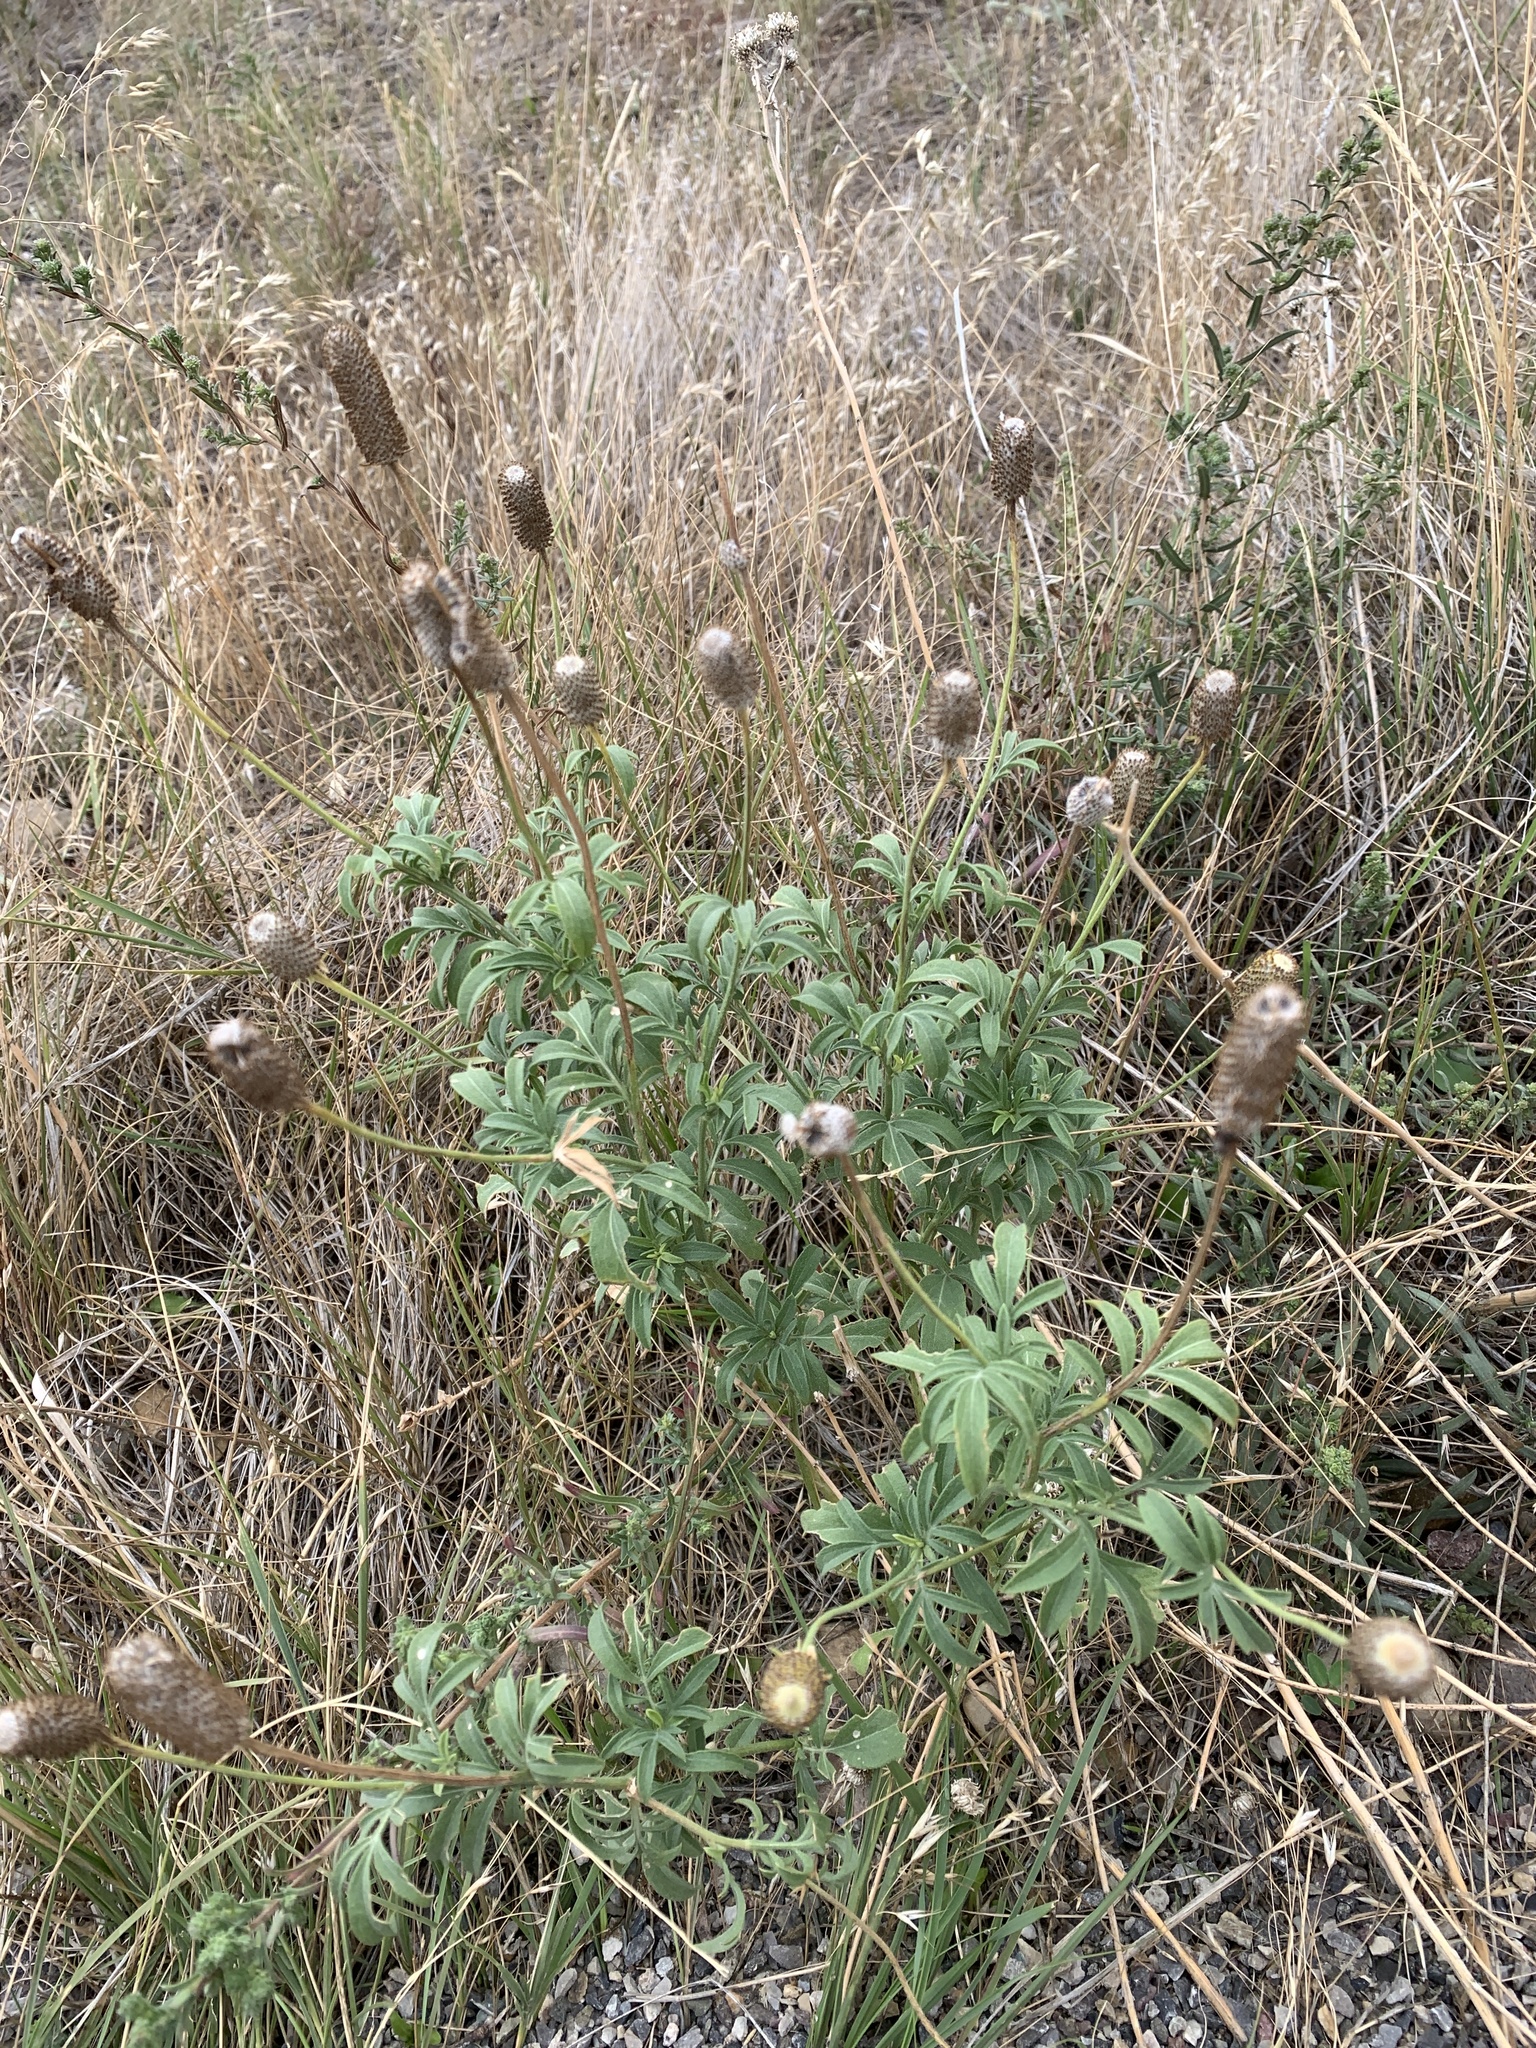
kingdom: Plantae
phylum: Tracheophyta
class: Magnoliopsida
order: Asterales
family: Asteraceae
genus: Ratibida
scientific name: Ratibida columnifera
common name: Prairie coneflower
